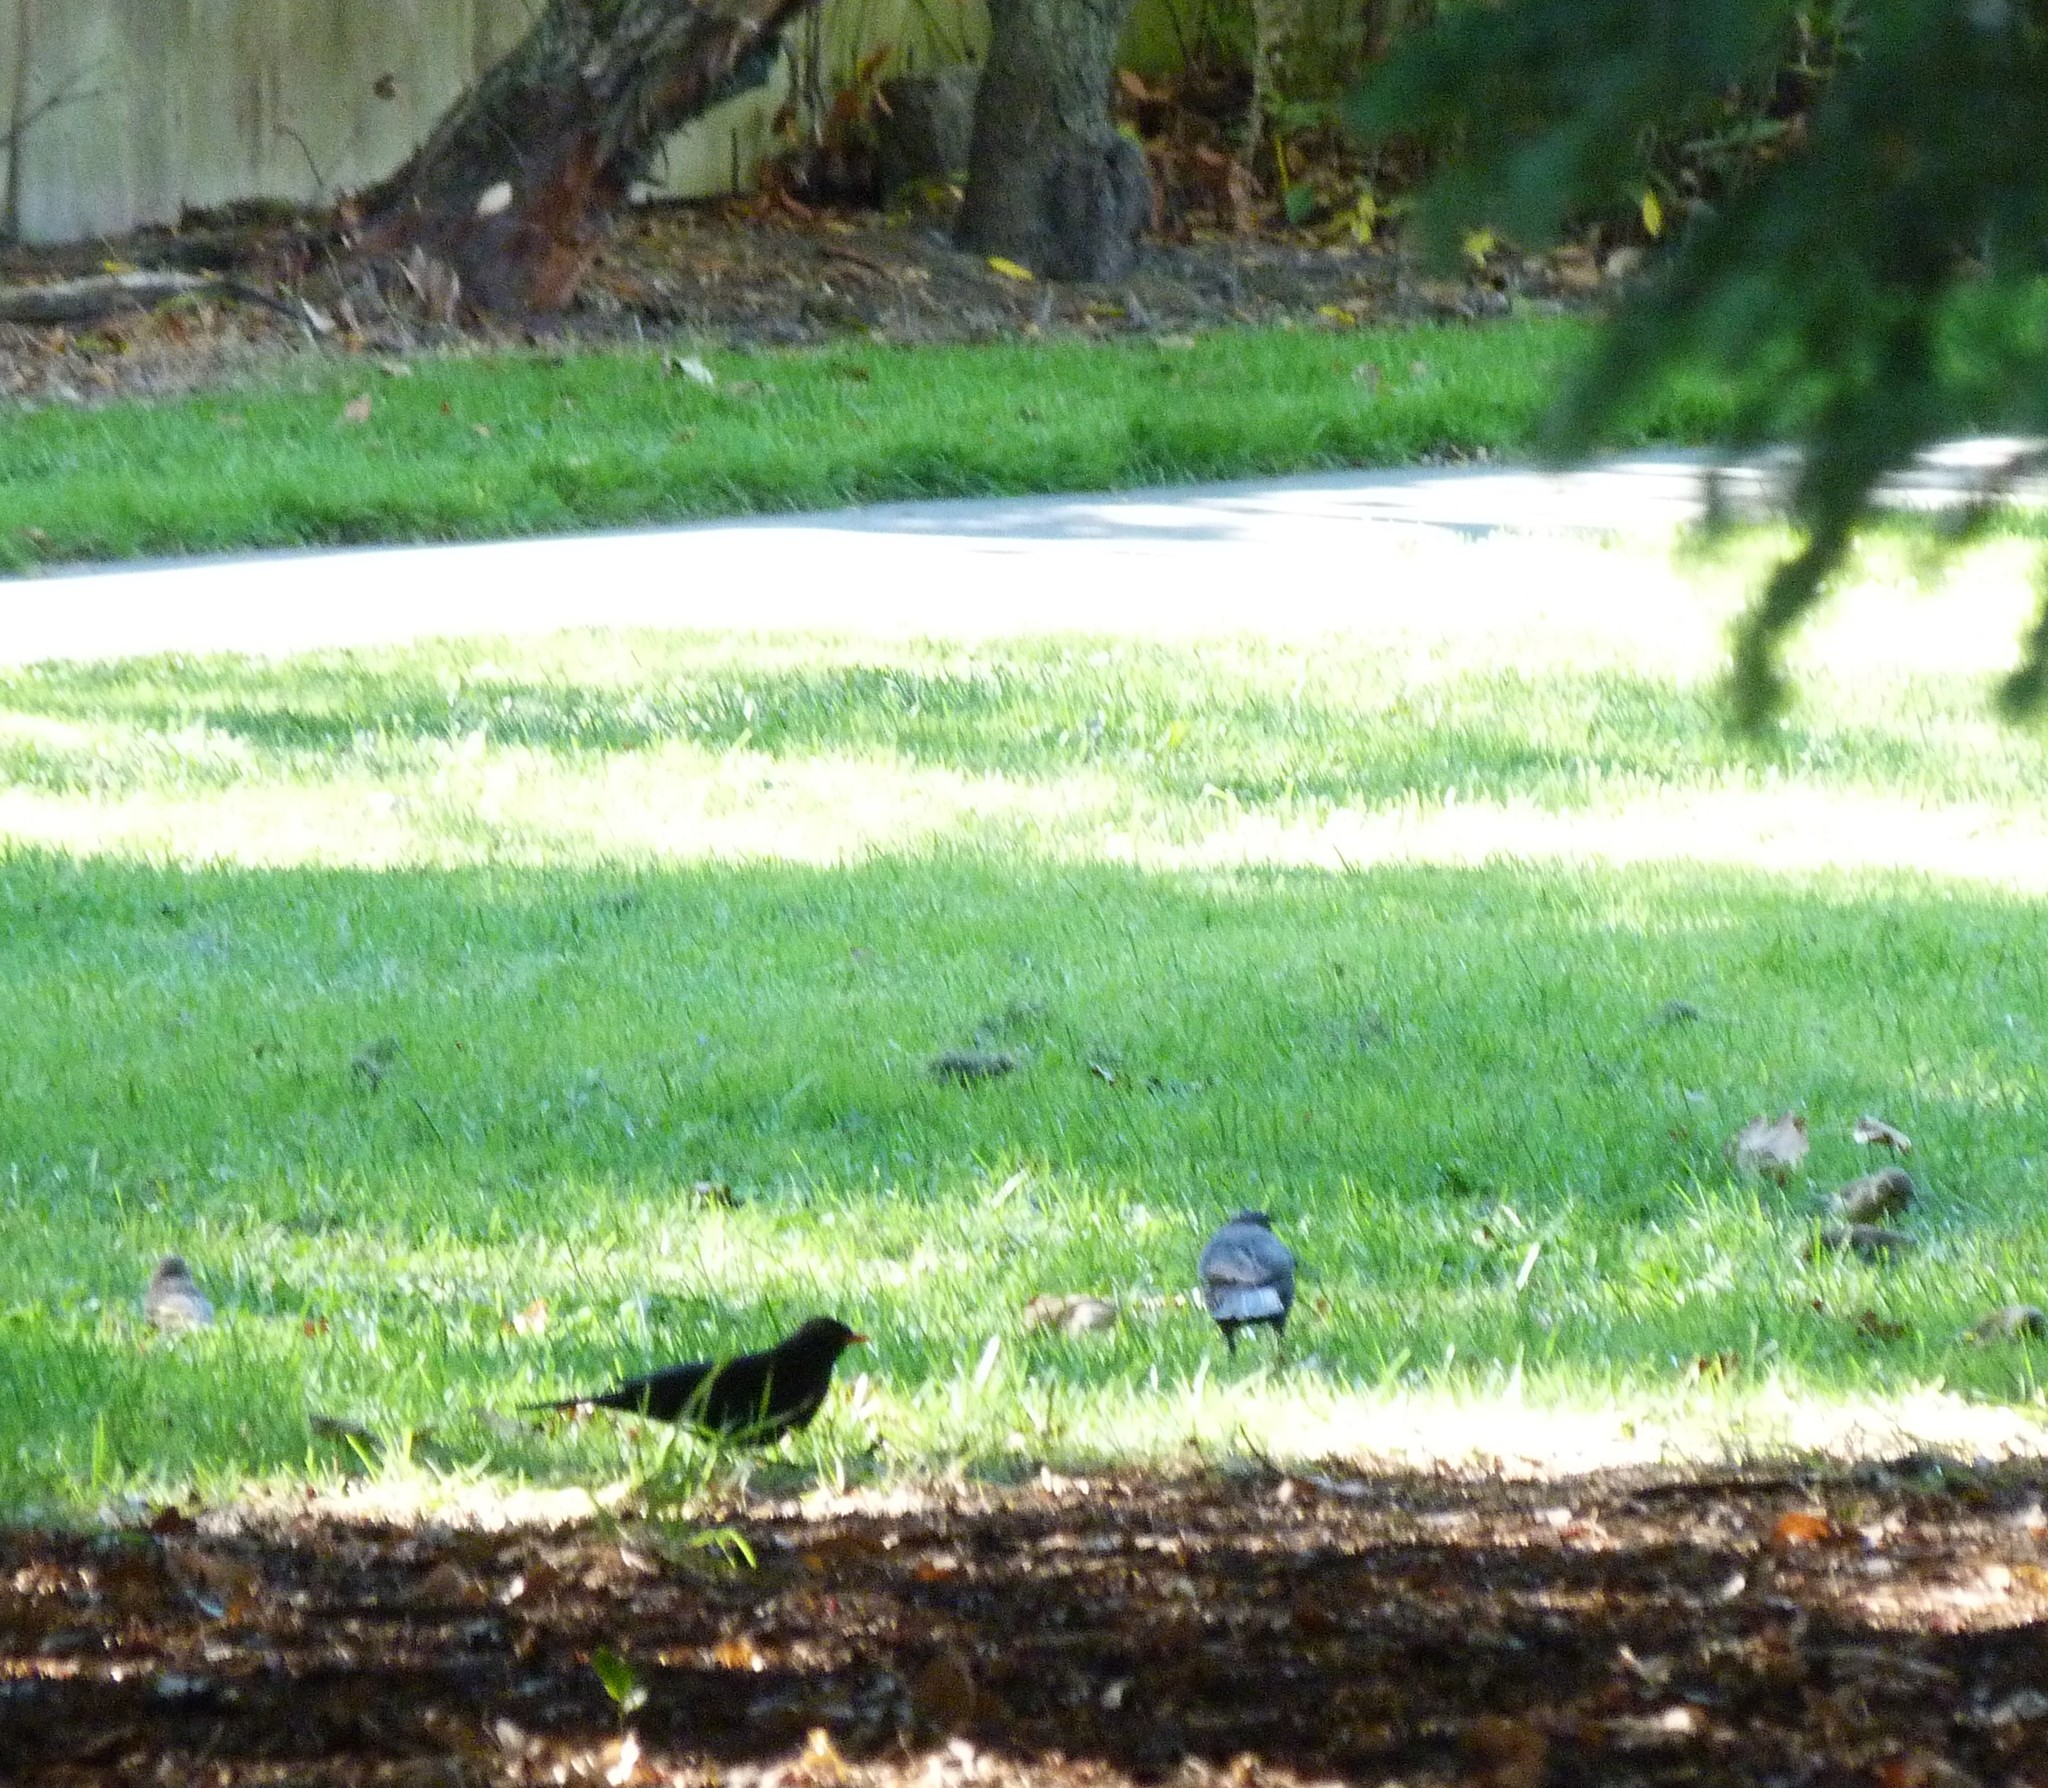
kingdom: Animalia
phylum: Chordata
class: Aves
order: Passeriformes
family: Turdidae
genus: Turdus
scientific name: Turdus merula
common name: Common blackbird
